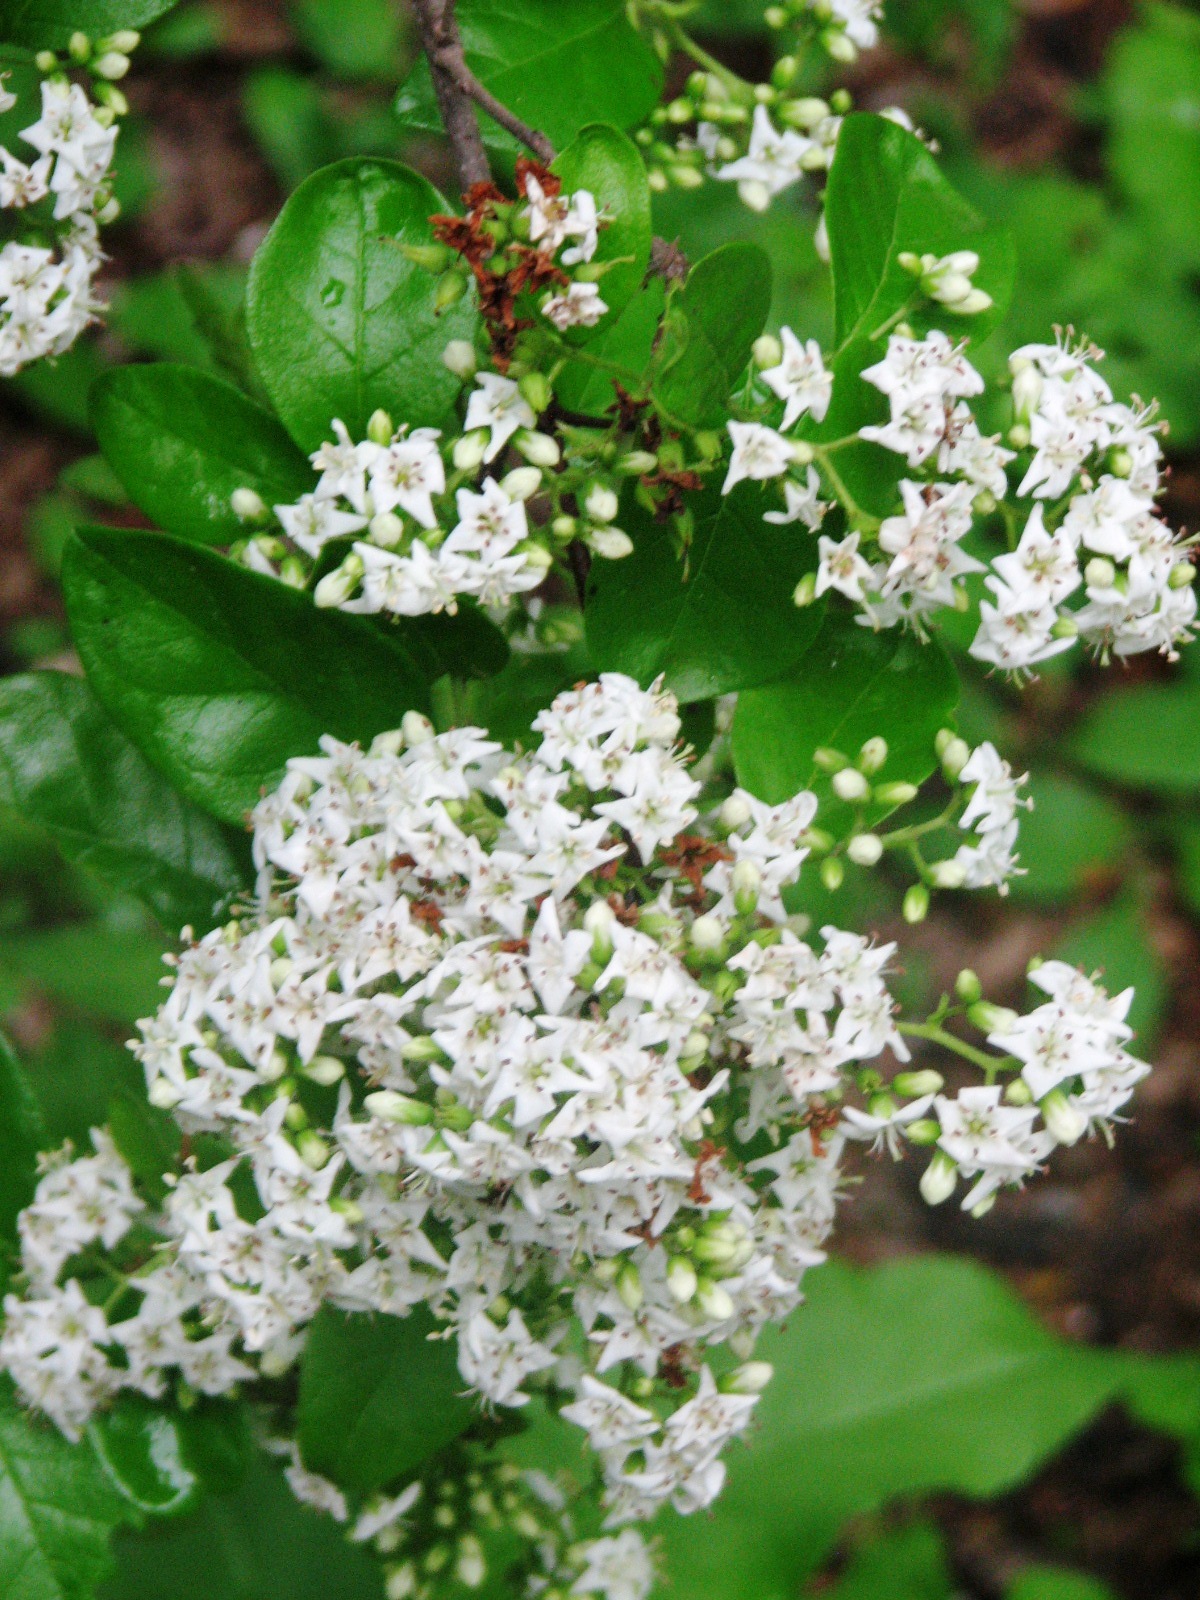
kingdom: Plantae
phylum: Tracheophyta
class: Magnoliopsida
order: Boraginales
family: Ehretiaceae
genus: Ehretia
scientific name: Ehretia anacua
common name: Sugarberry
